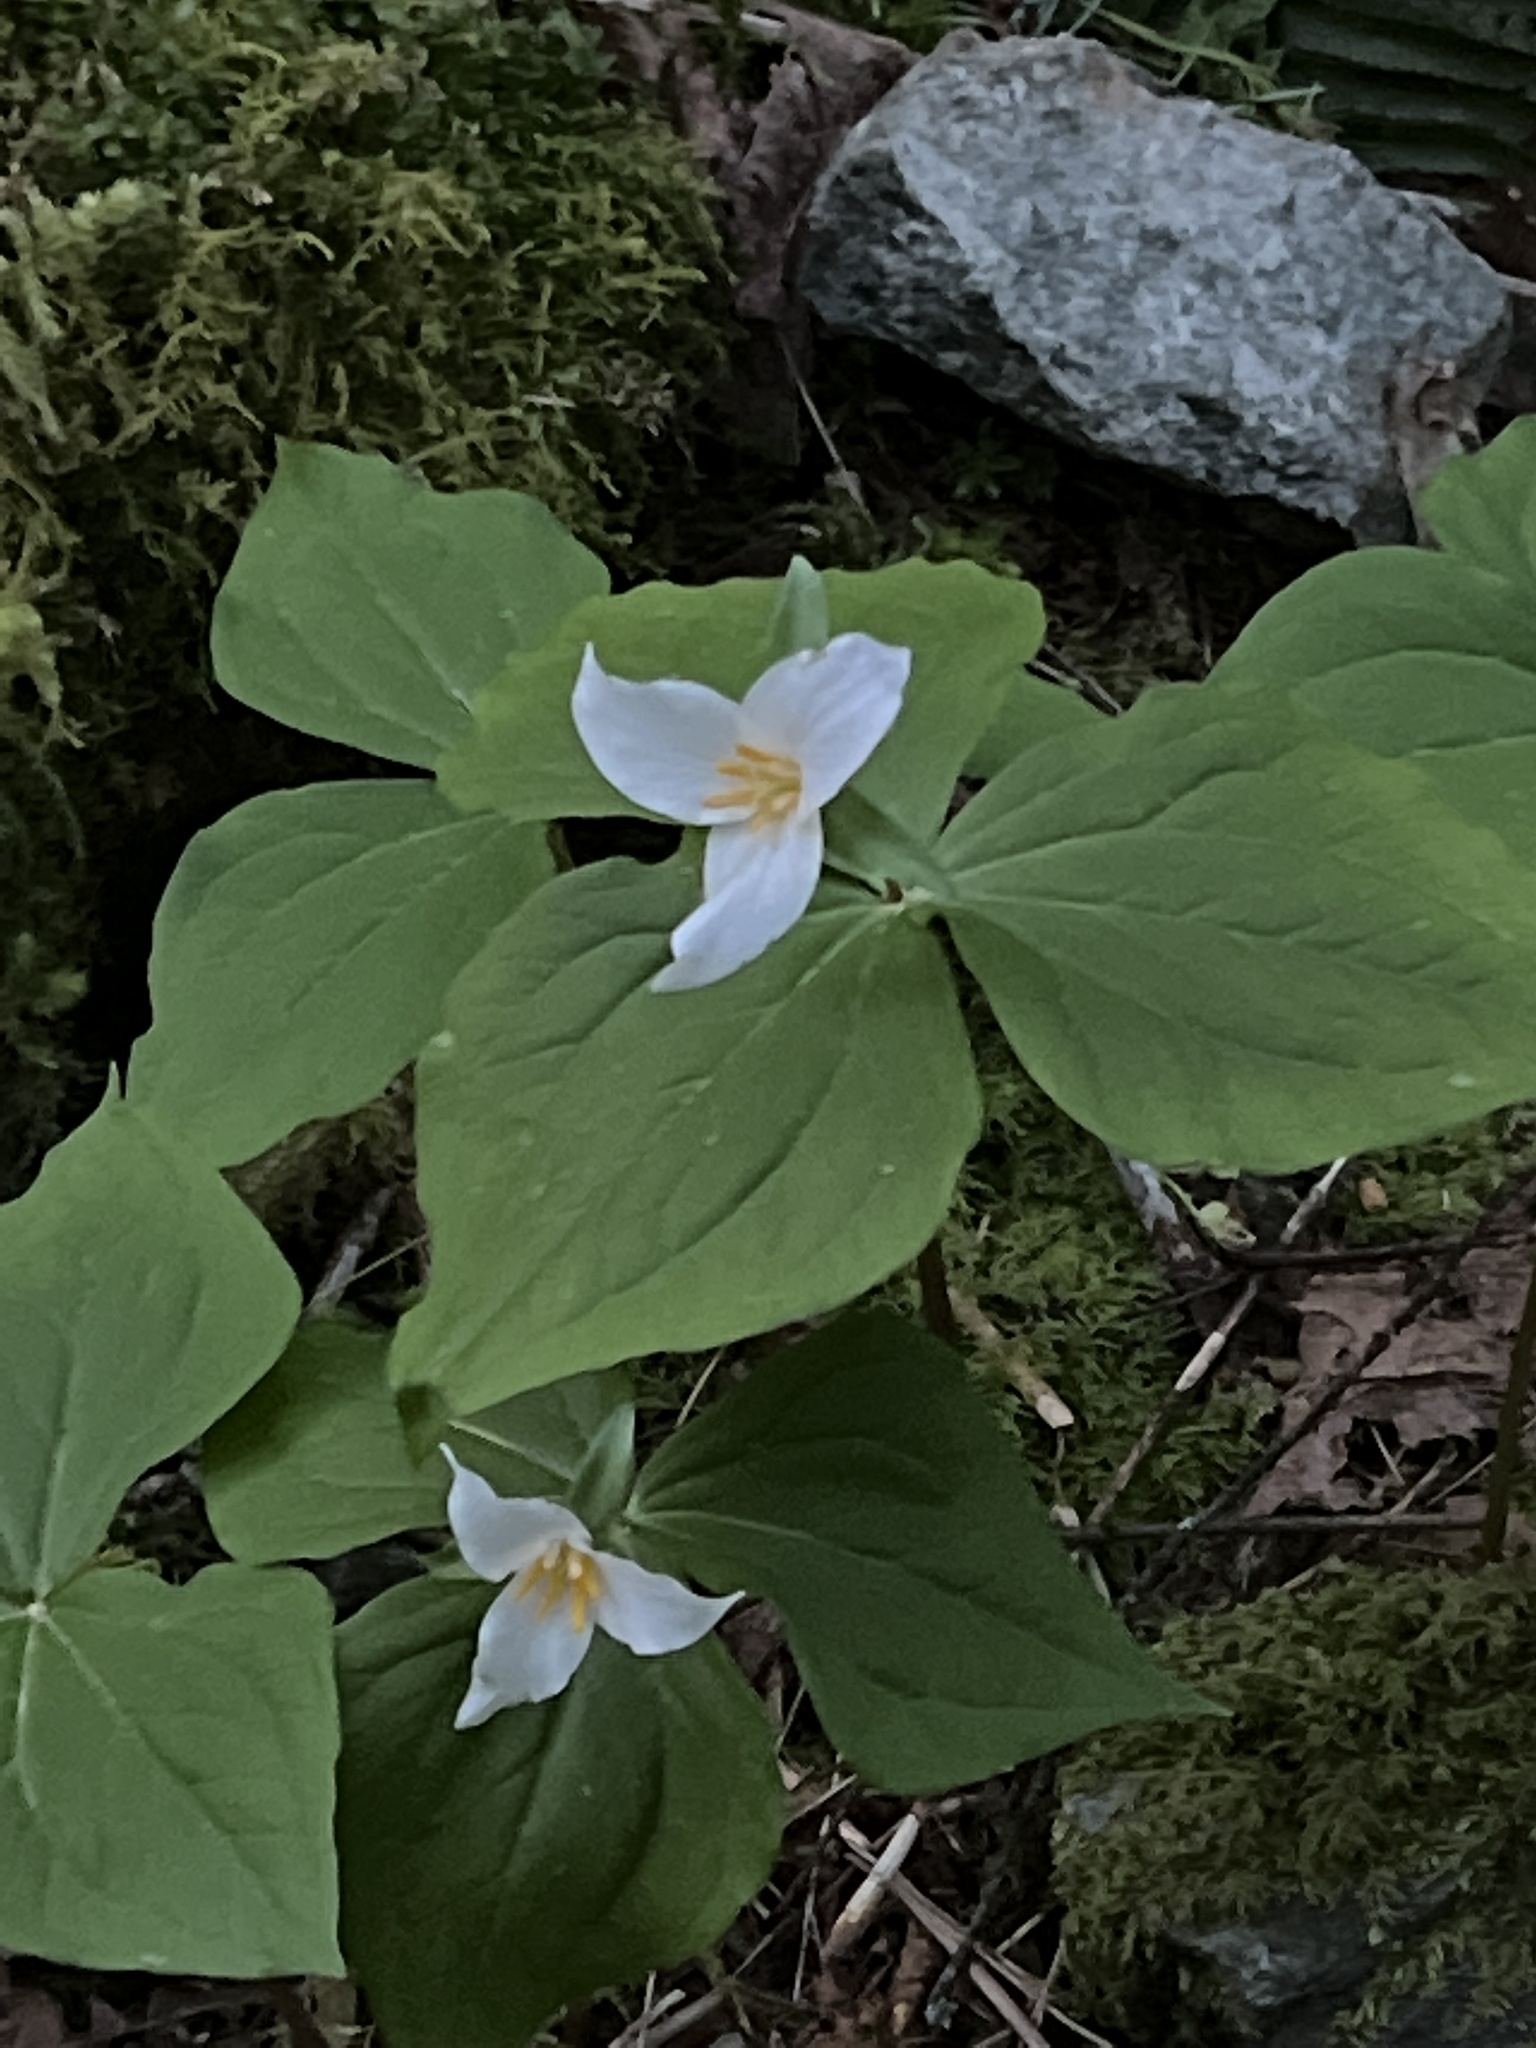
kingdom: Plantae
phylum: Tracheophyta
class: Liliopsida
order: Liliales
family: Melanthiaceae
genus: Trillium
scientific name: Trillium ovatum
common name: Pacific trillium
